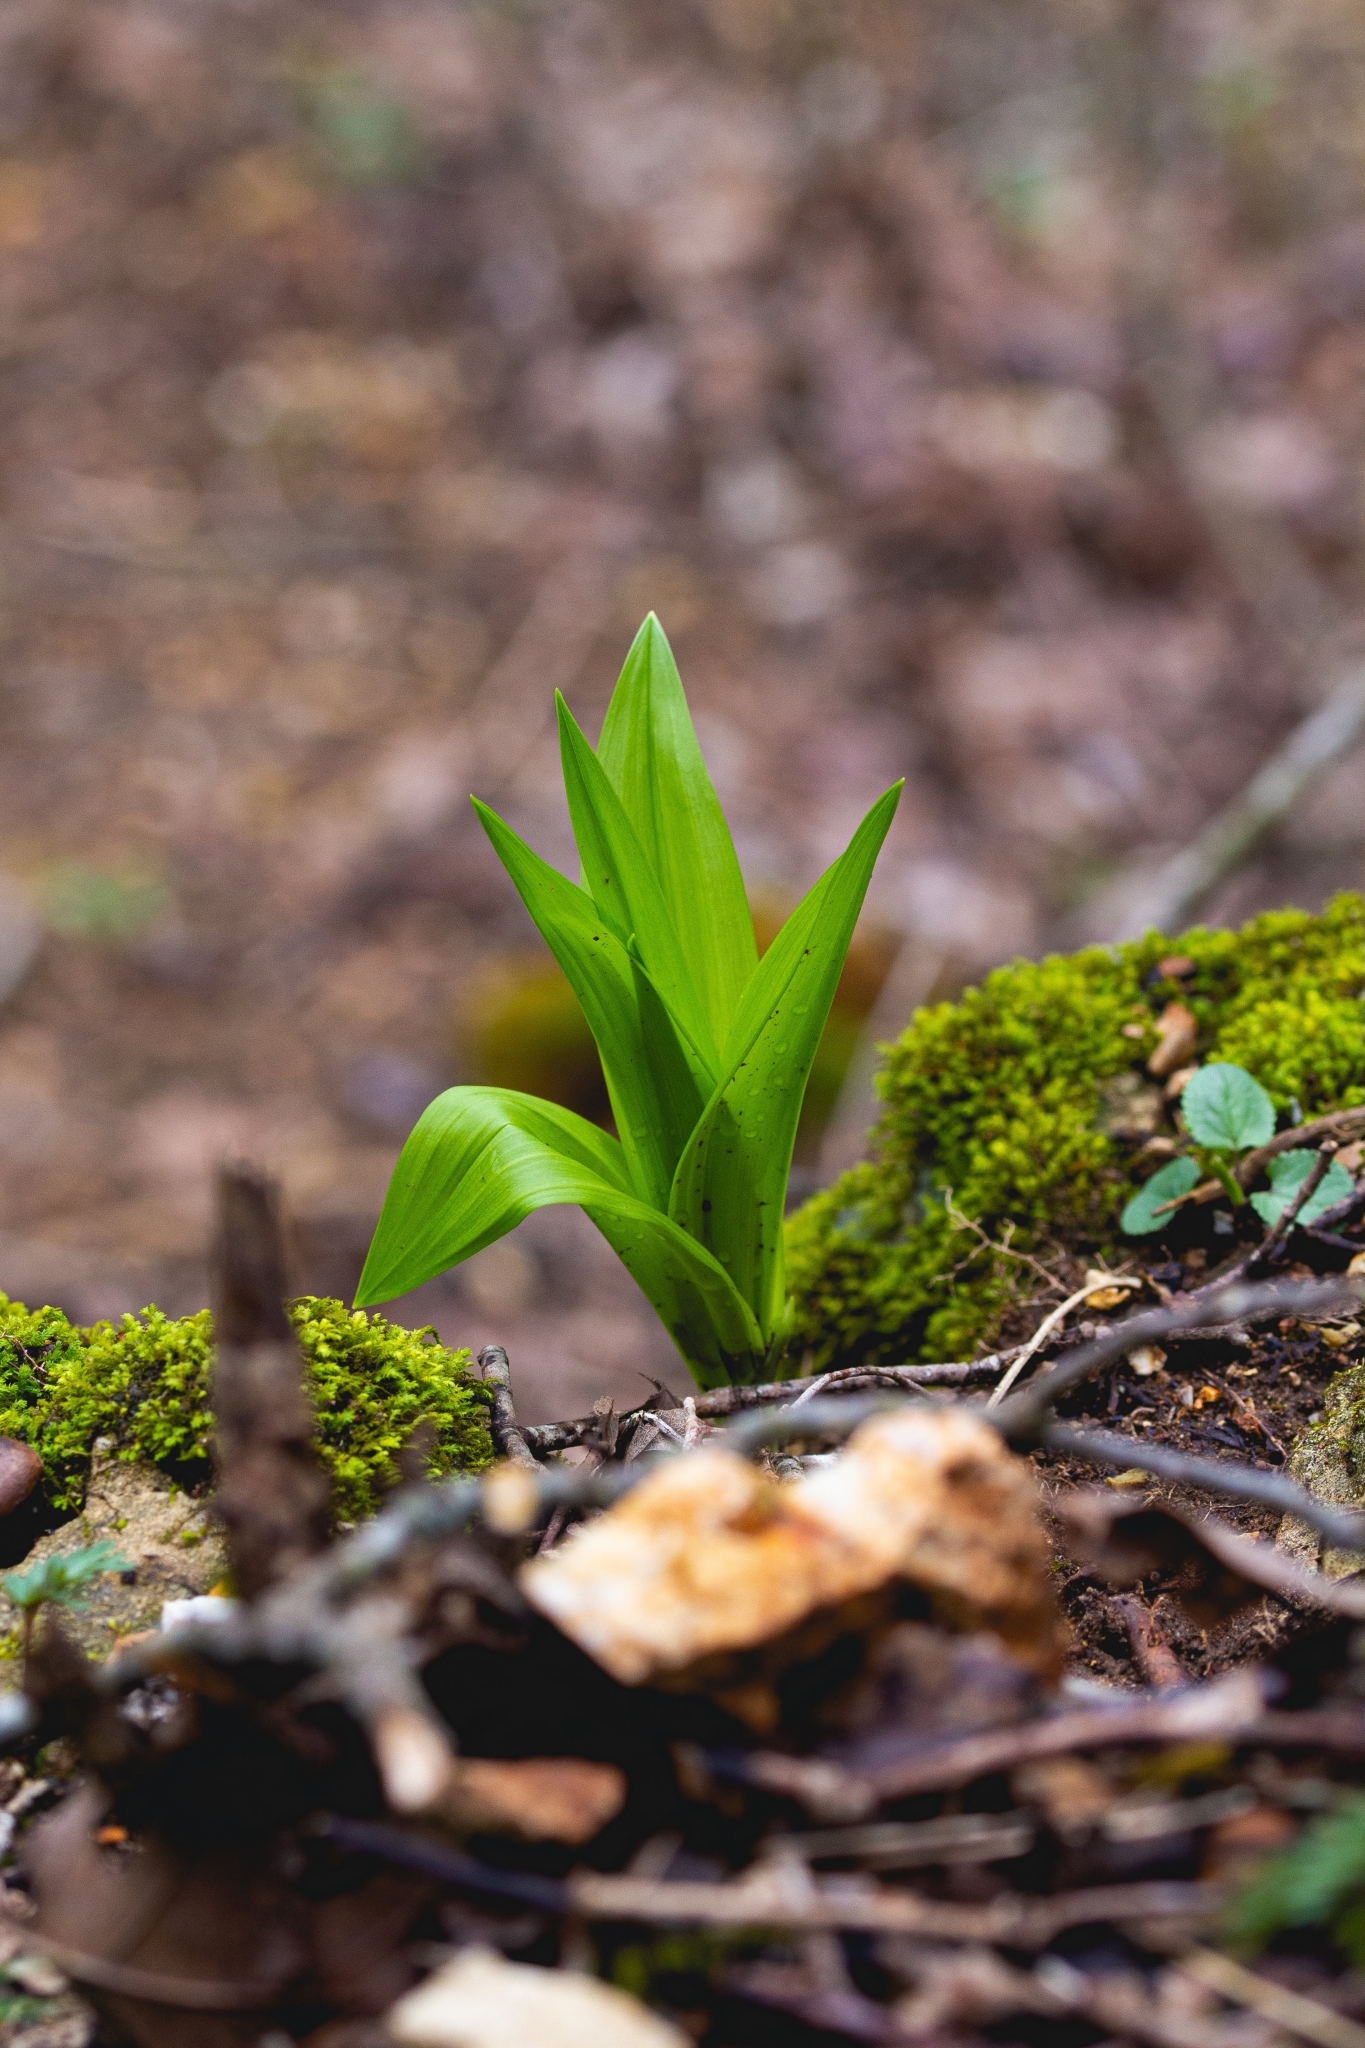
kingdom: Plantae
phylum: Tracheophyta
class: Liliopsida
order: Liliales
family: Melanthiaceae
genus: Veratrum
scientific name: Veratrum woodii
